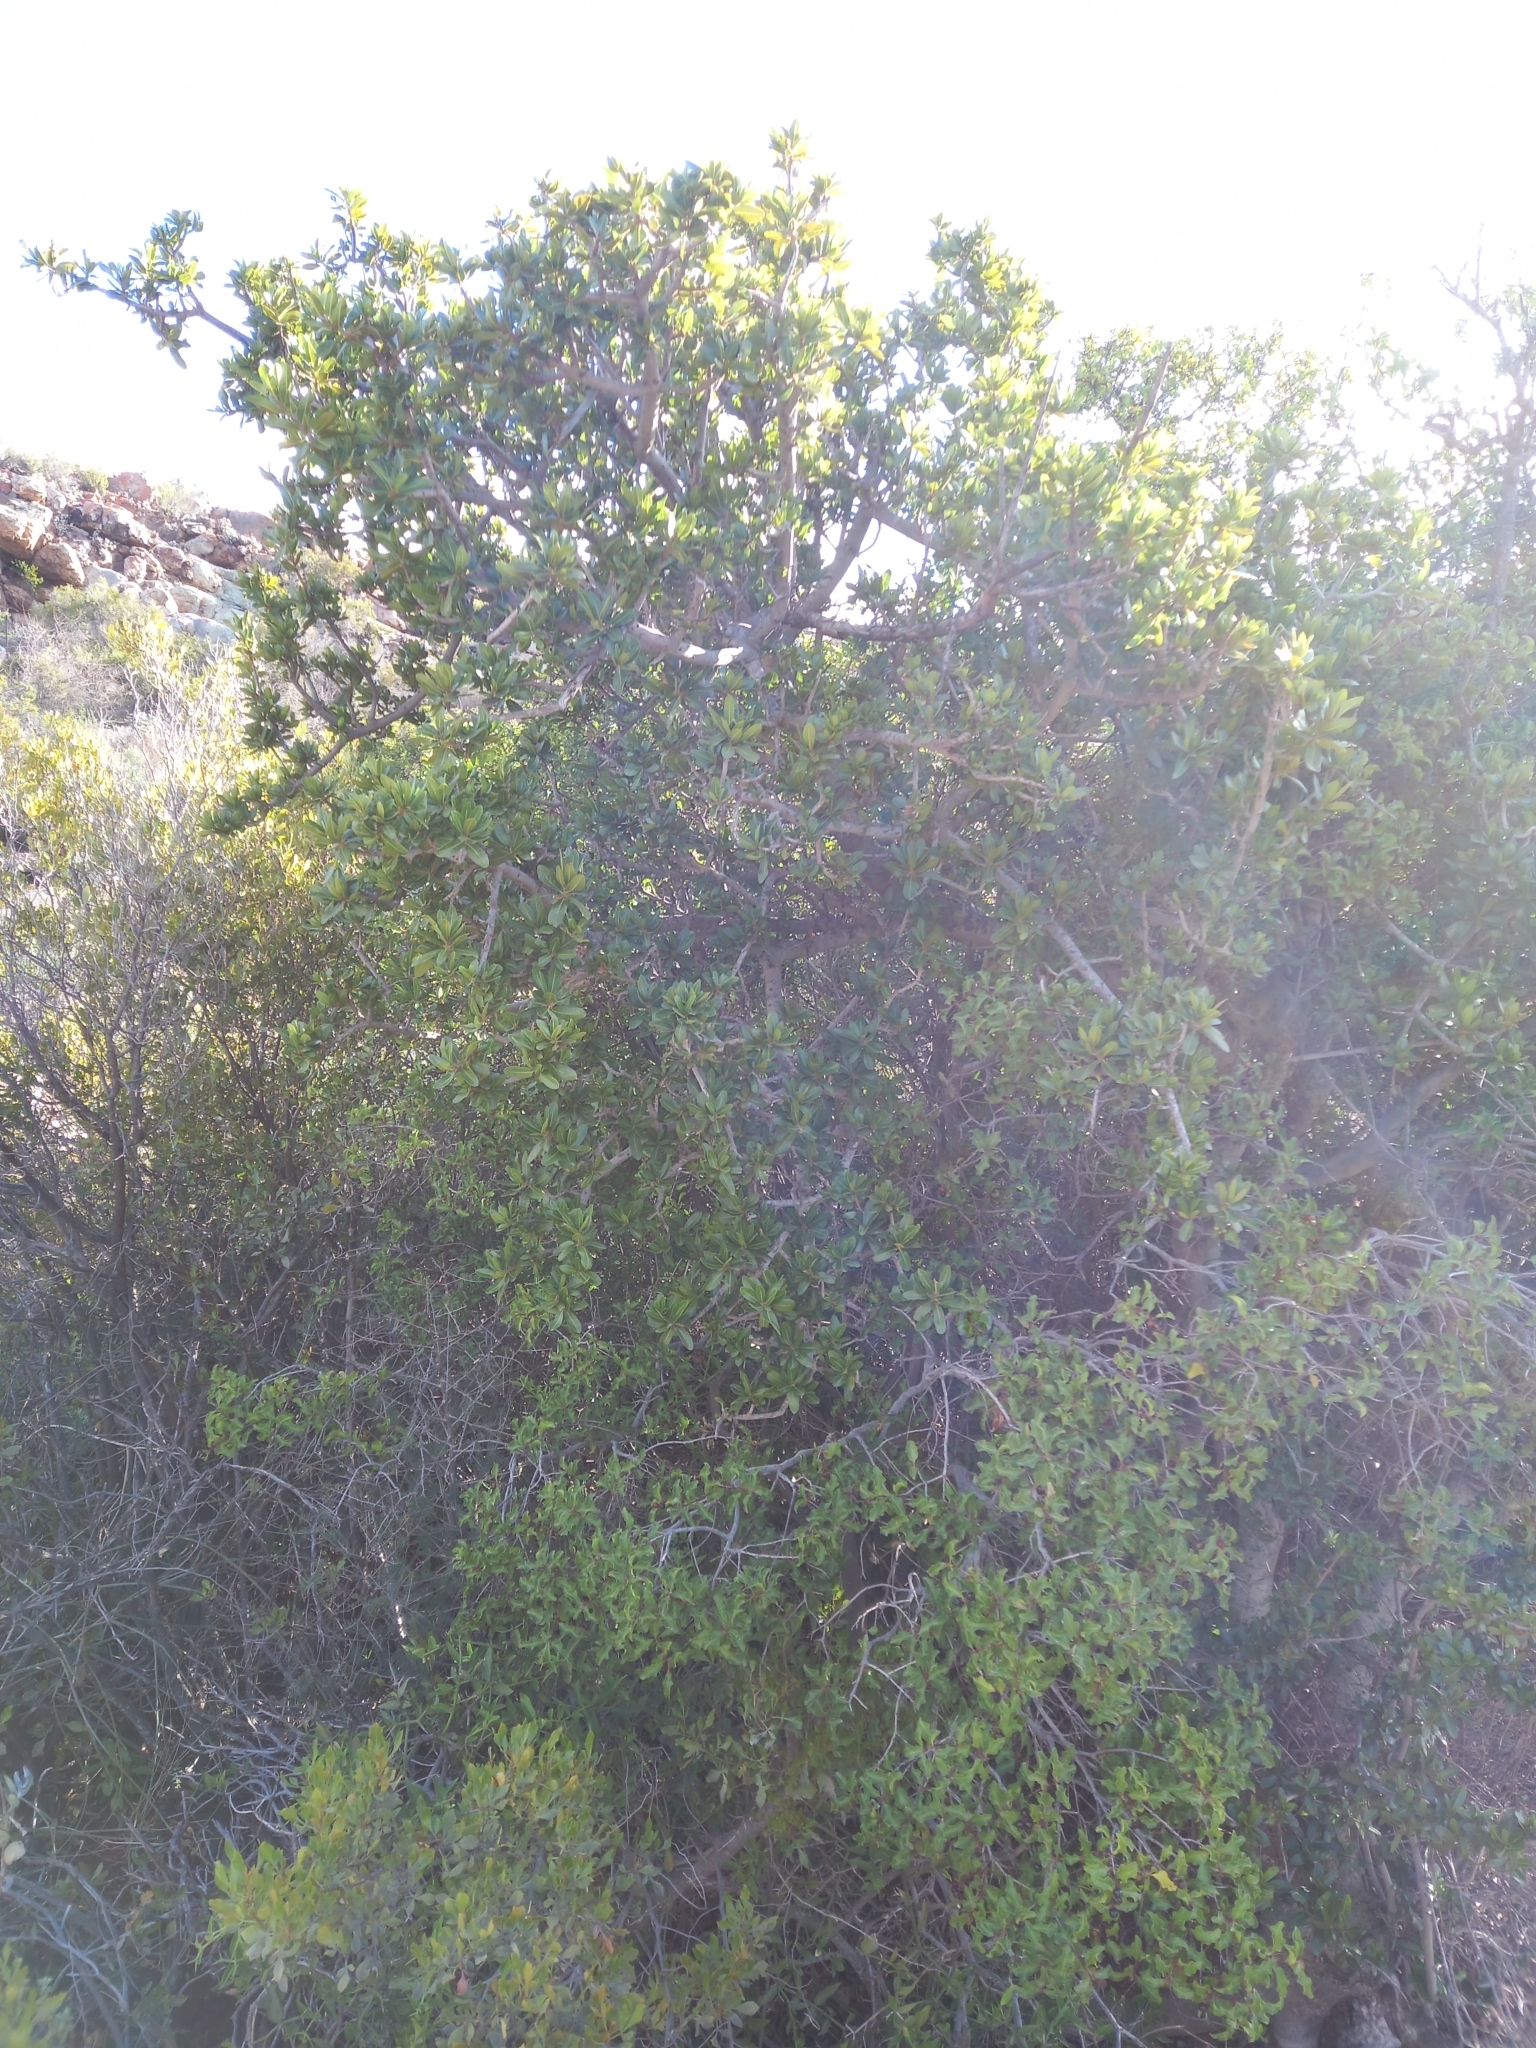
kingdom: Plantae
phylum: Tracheophyta
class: Magnoliopsida
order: Sapindales
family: Sapindaceae
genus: Pappea
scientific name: Pappea capensis
